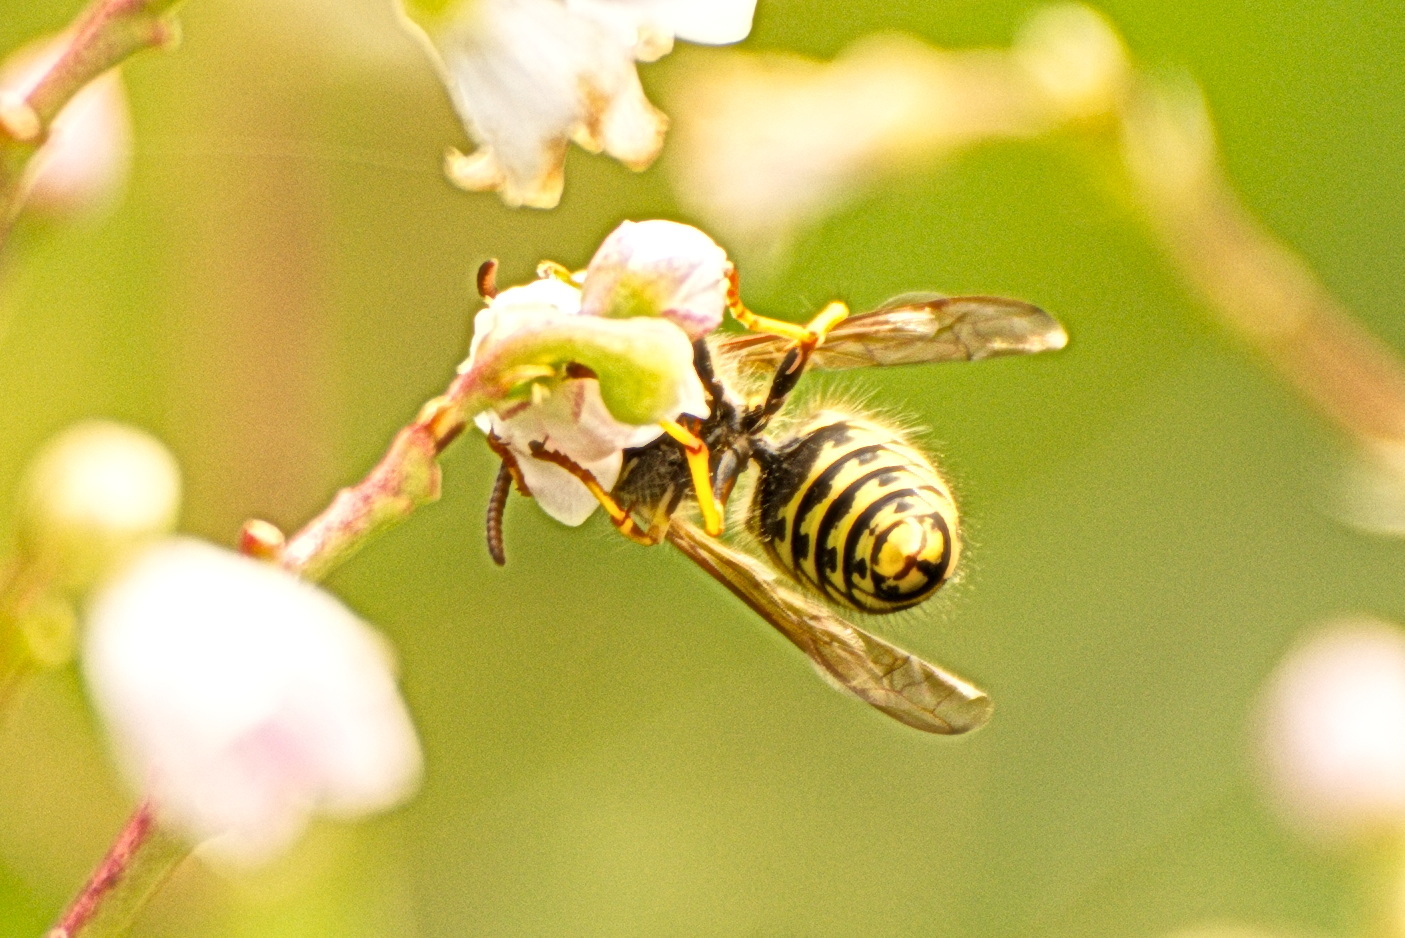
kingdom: Animalia
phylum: Arthropoda
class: Insecta
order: Hymenoptera
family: Vespidae
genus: Dolichovespula
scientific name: Dolichovespula arenaria
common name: Aerial yellowjacket
